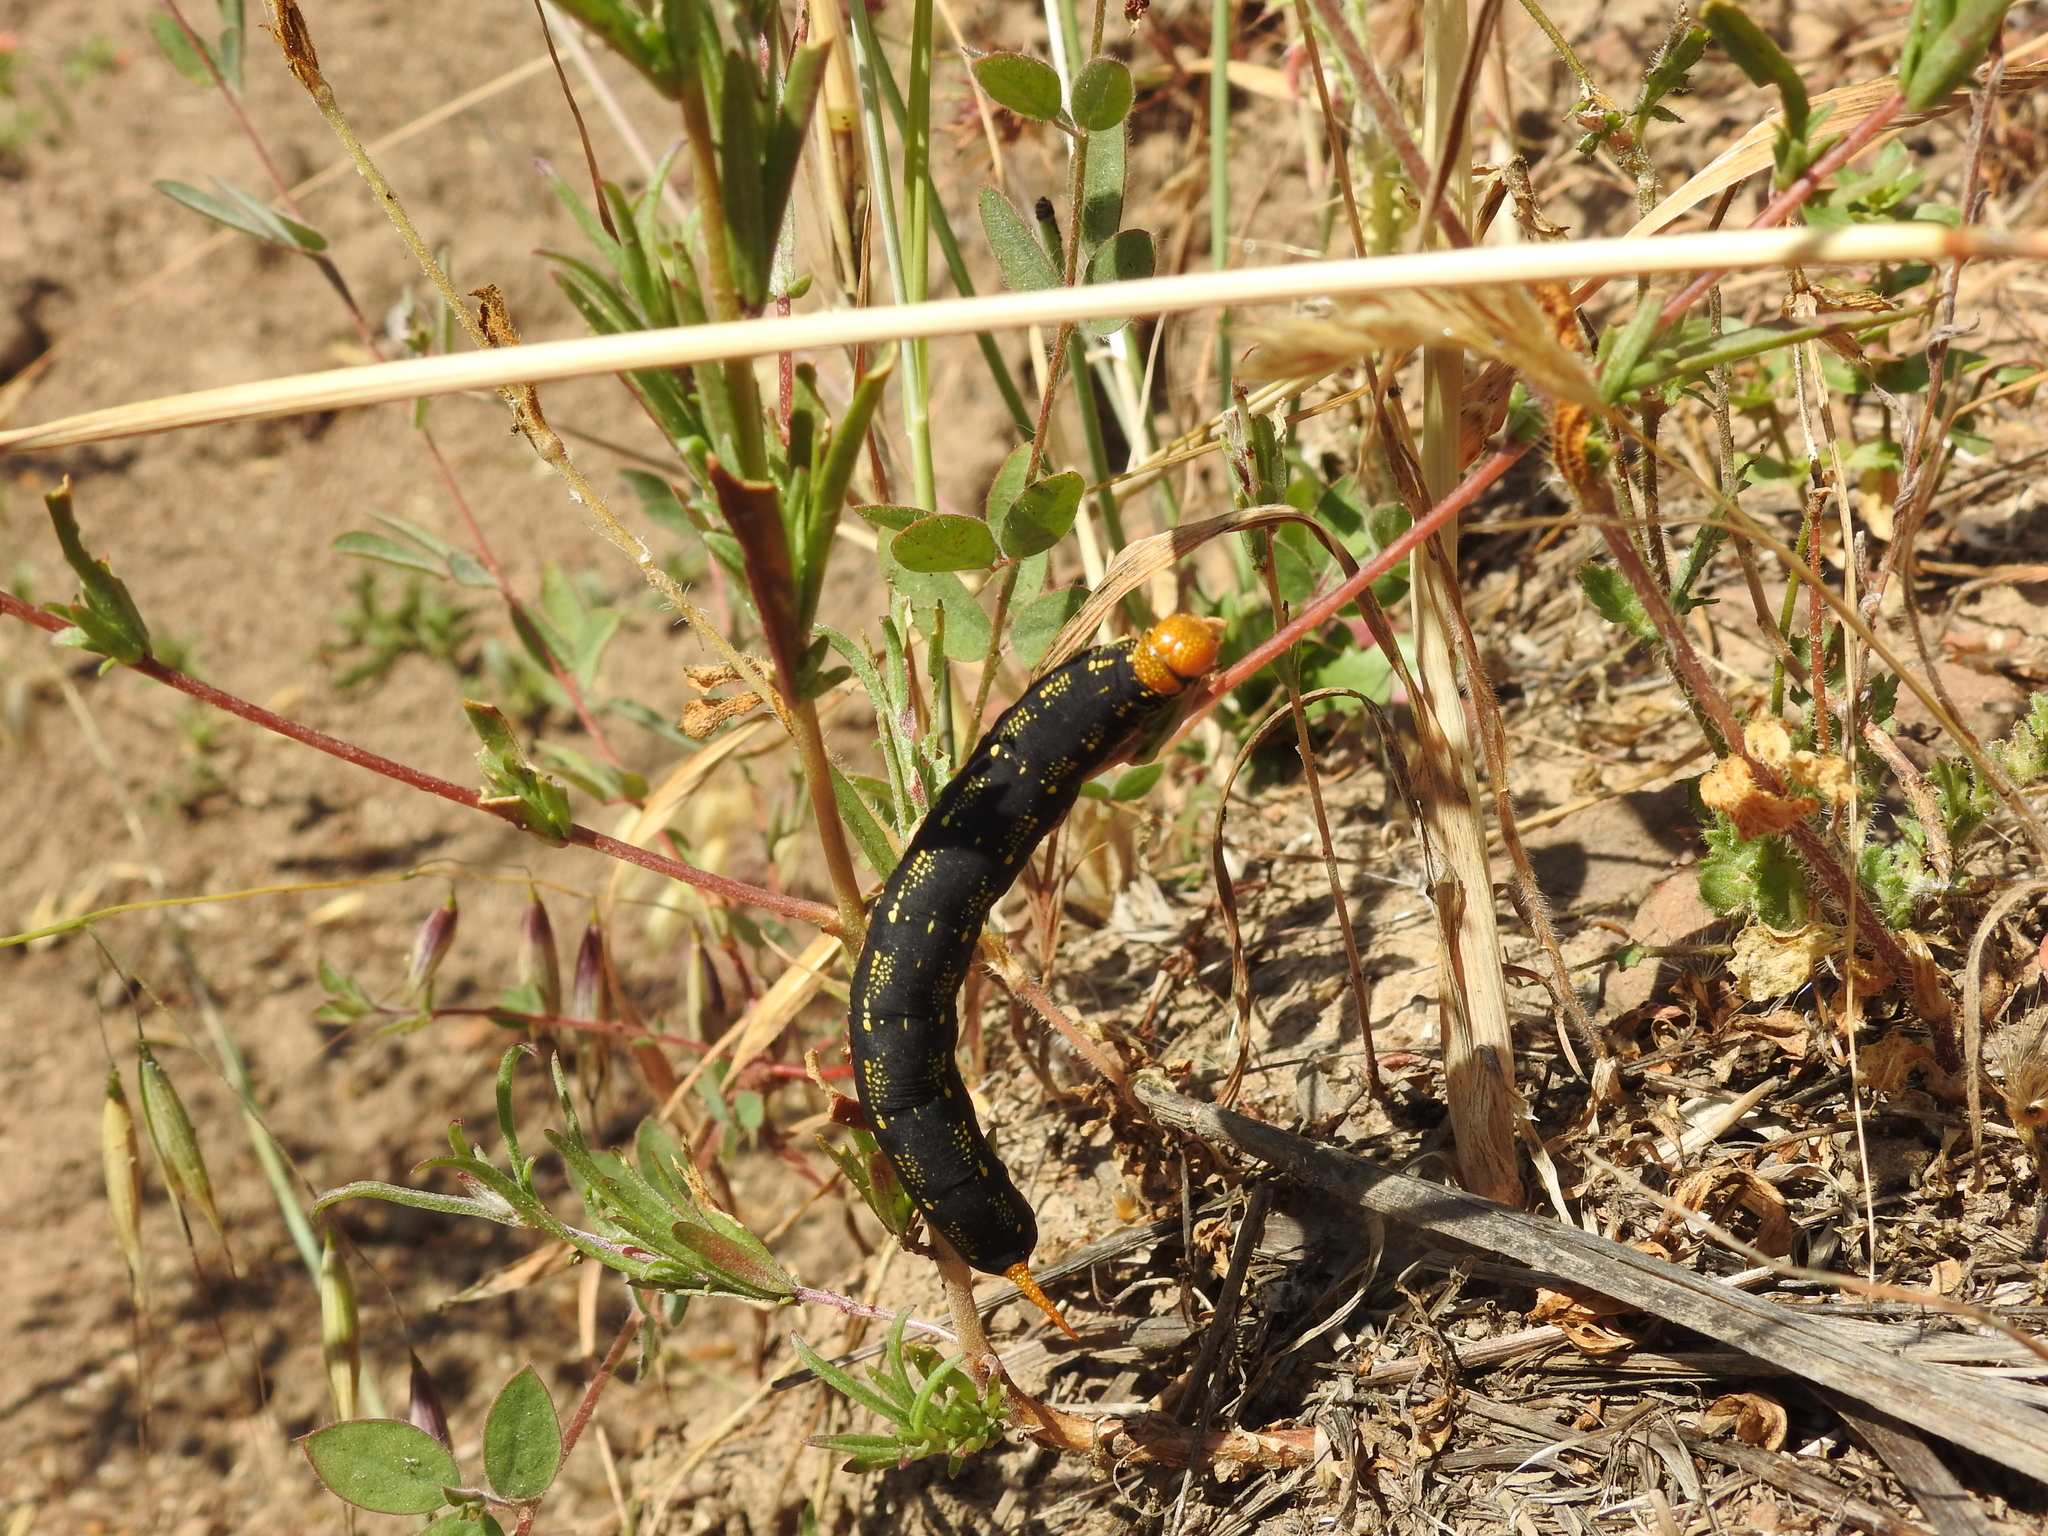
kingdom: Animalia
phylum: Arthropoda
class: Insecta
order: Lepidoptera
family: Sphingidae
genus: Hyles
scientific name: Hyles lineata
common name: White-lined sphinx
